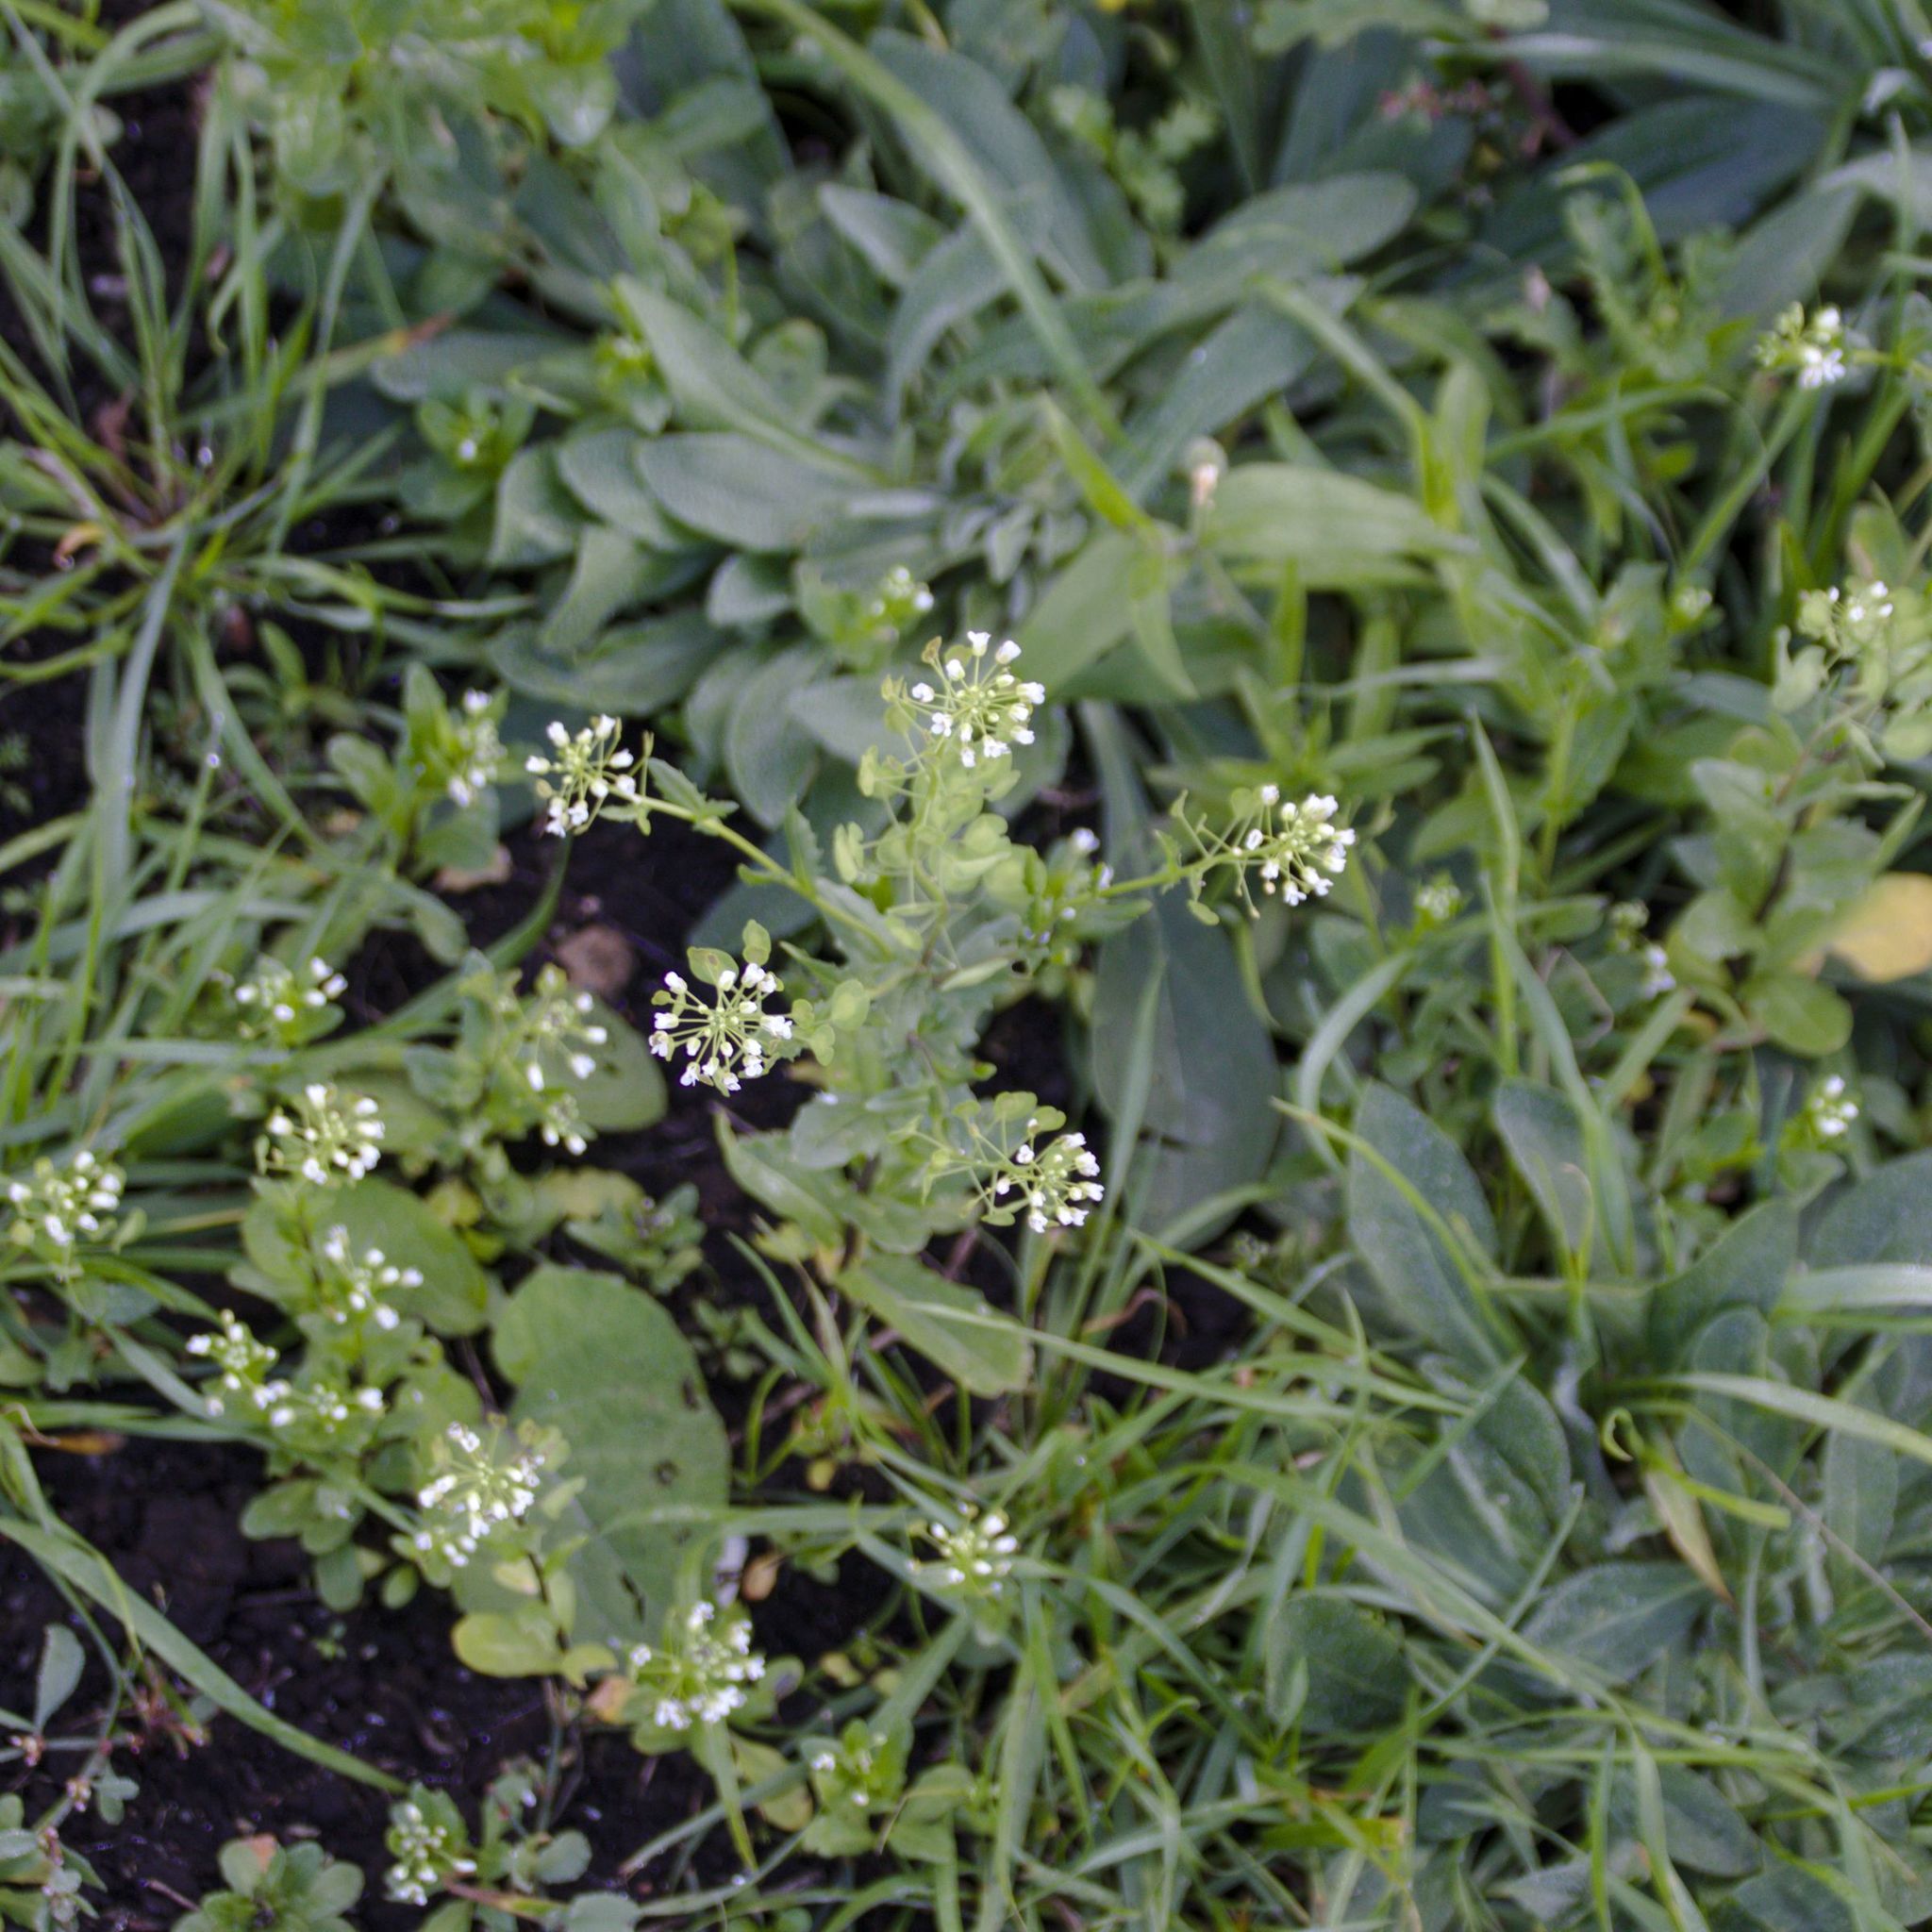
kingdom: Plantae
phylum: Tracheophyta
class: Magnoliopsida
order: Brassicales
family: Brassicaceae
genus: Thlaspi
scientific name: Thlaspi arvense
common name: Field pennycress
